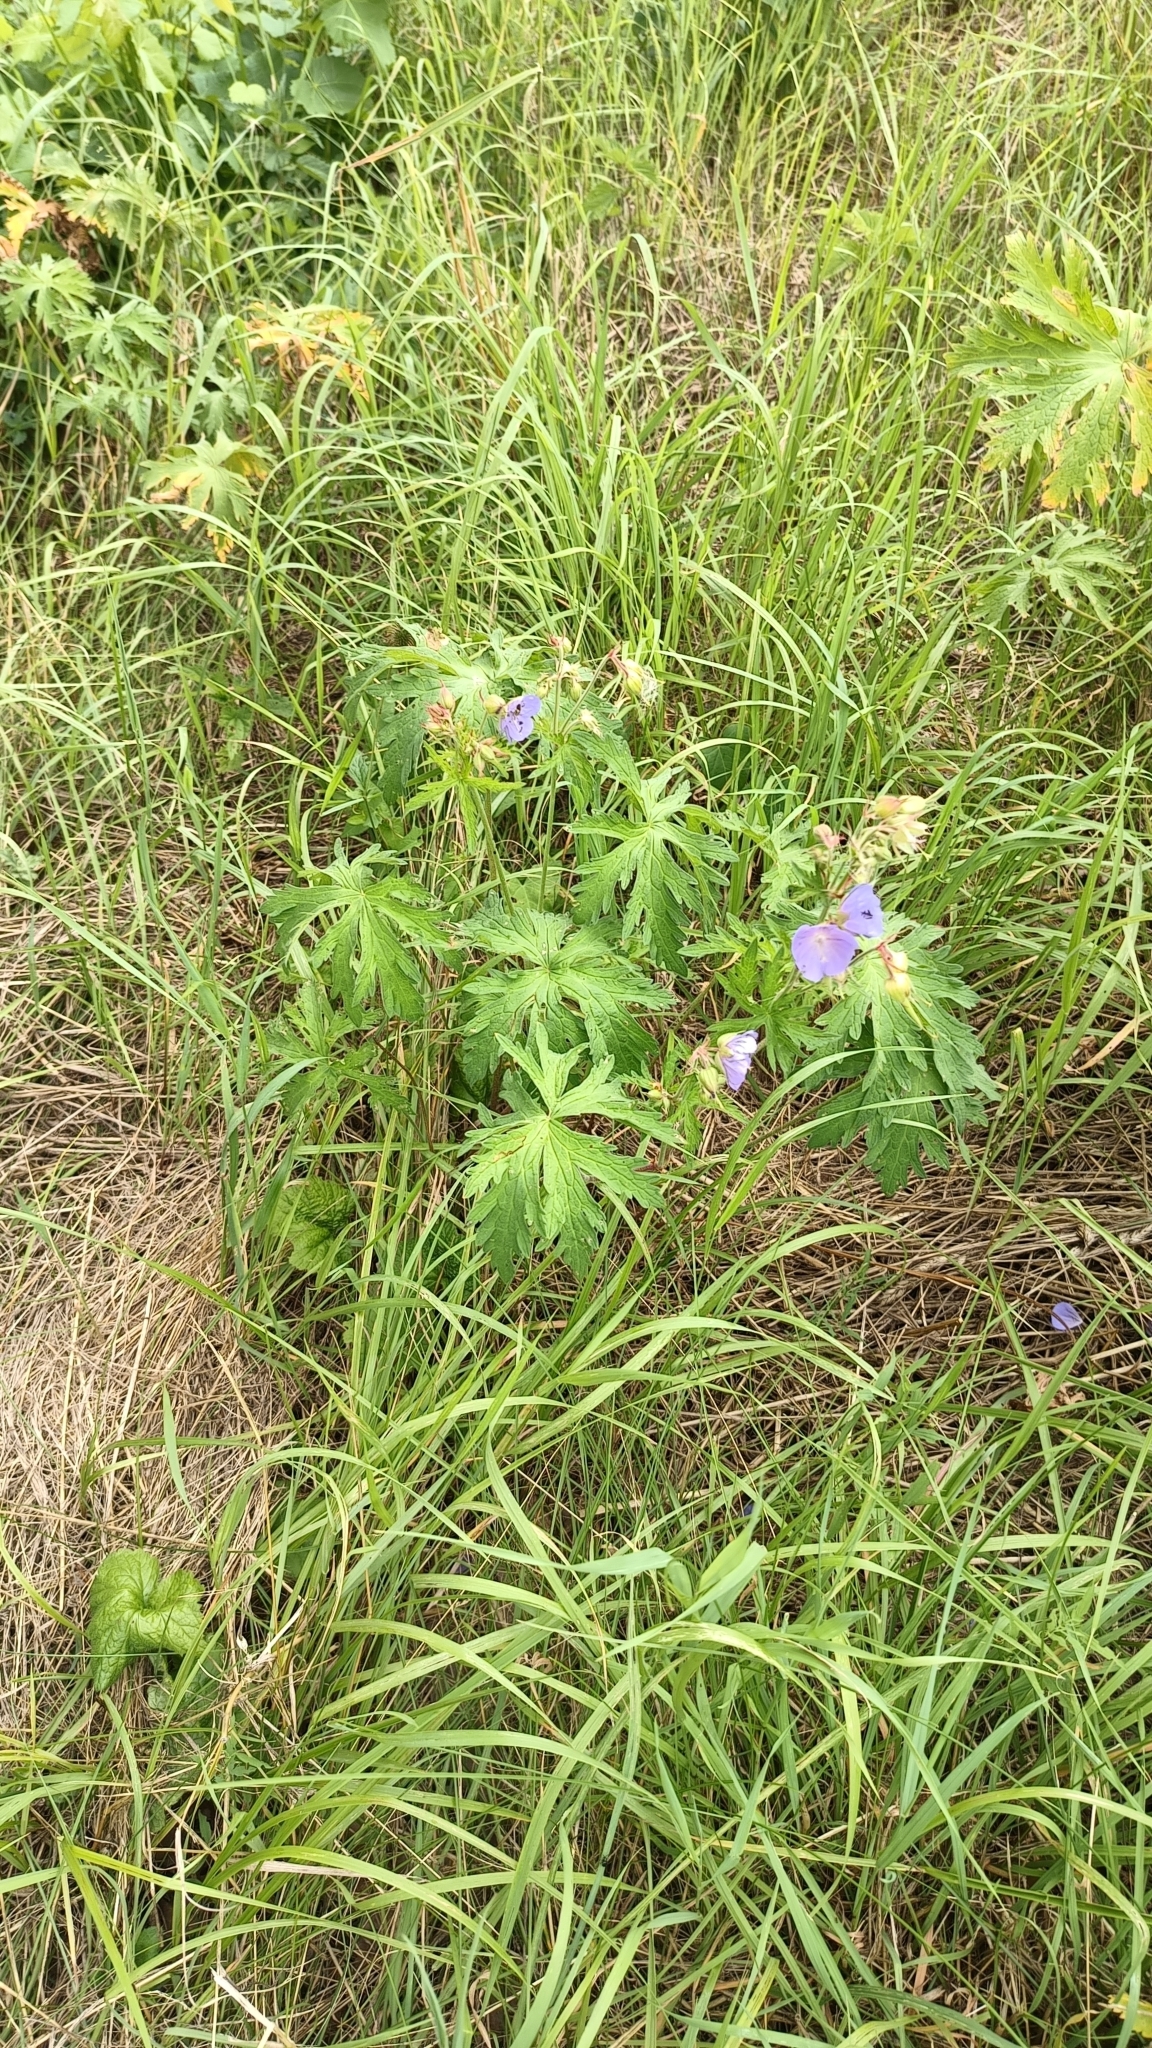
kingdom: Plantae
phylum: Tracheophyta
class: Magnoliopsida
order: Geraniales
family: Geraniaceae
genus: Geranium
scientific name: Geranium pratense
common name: Meadow crane's-bill
